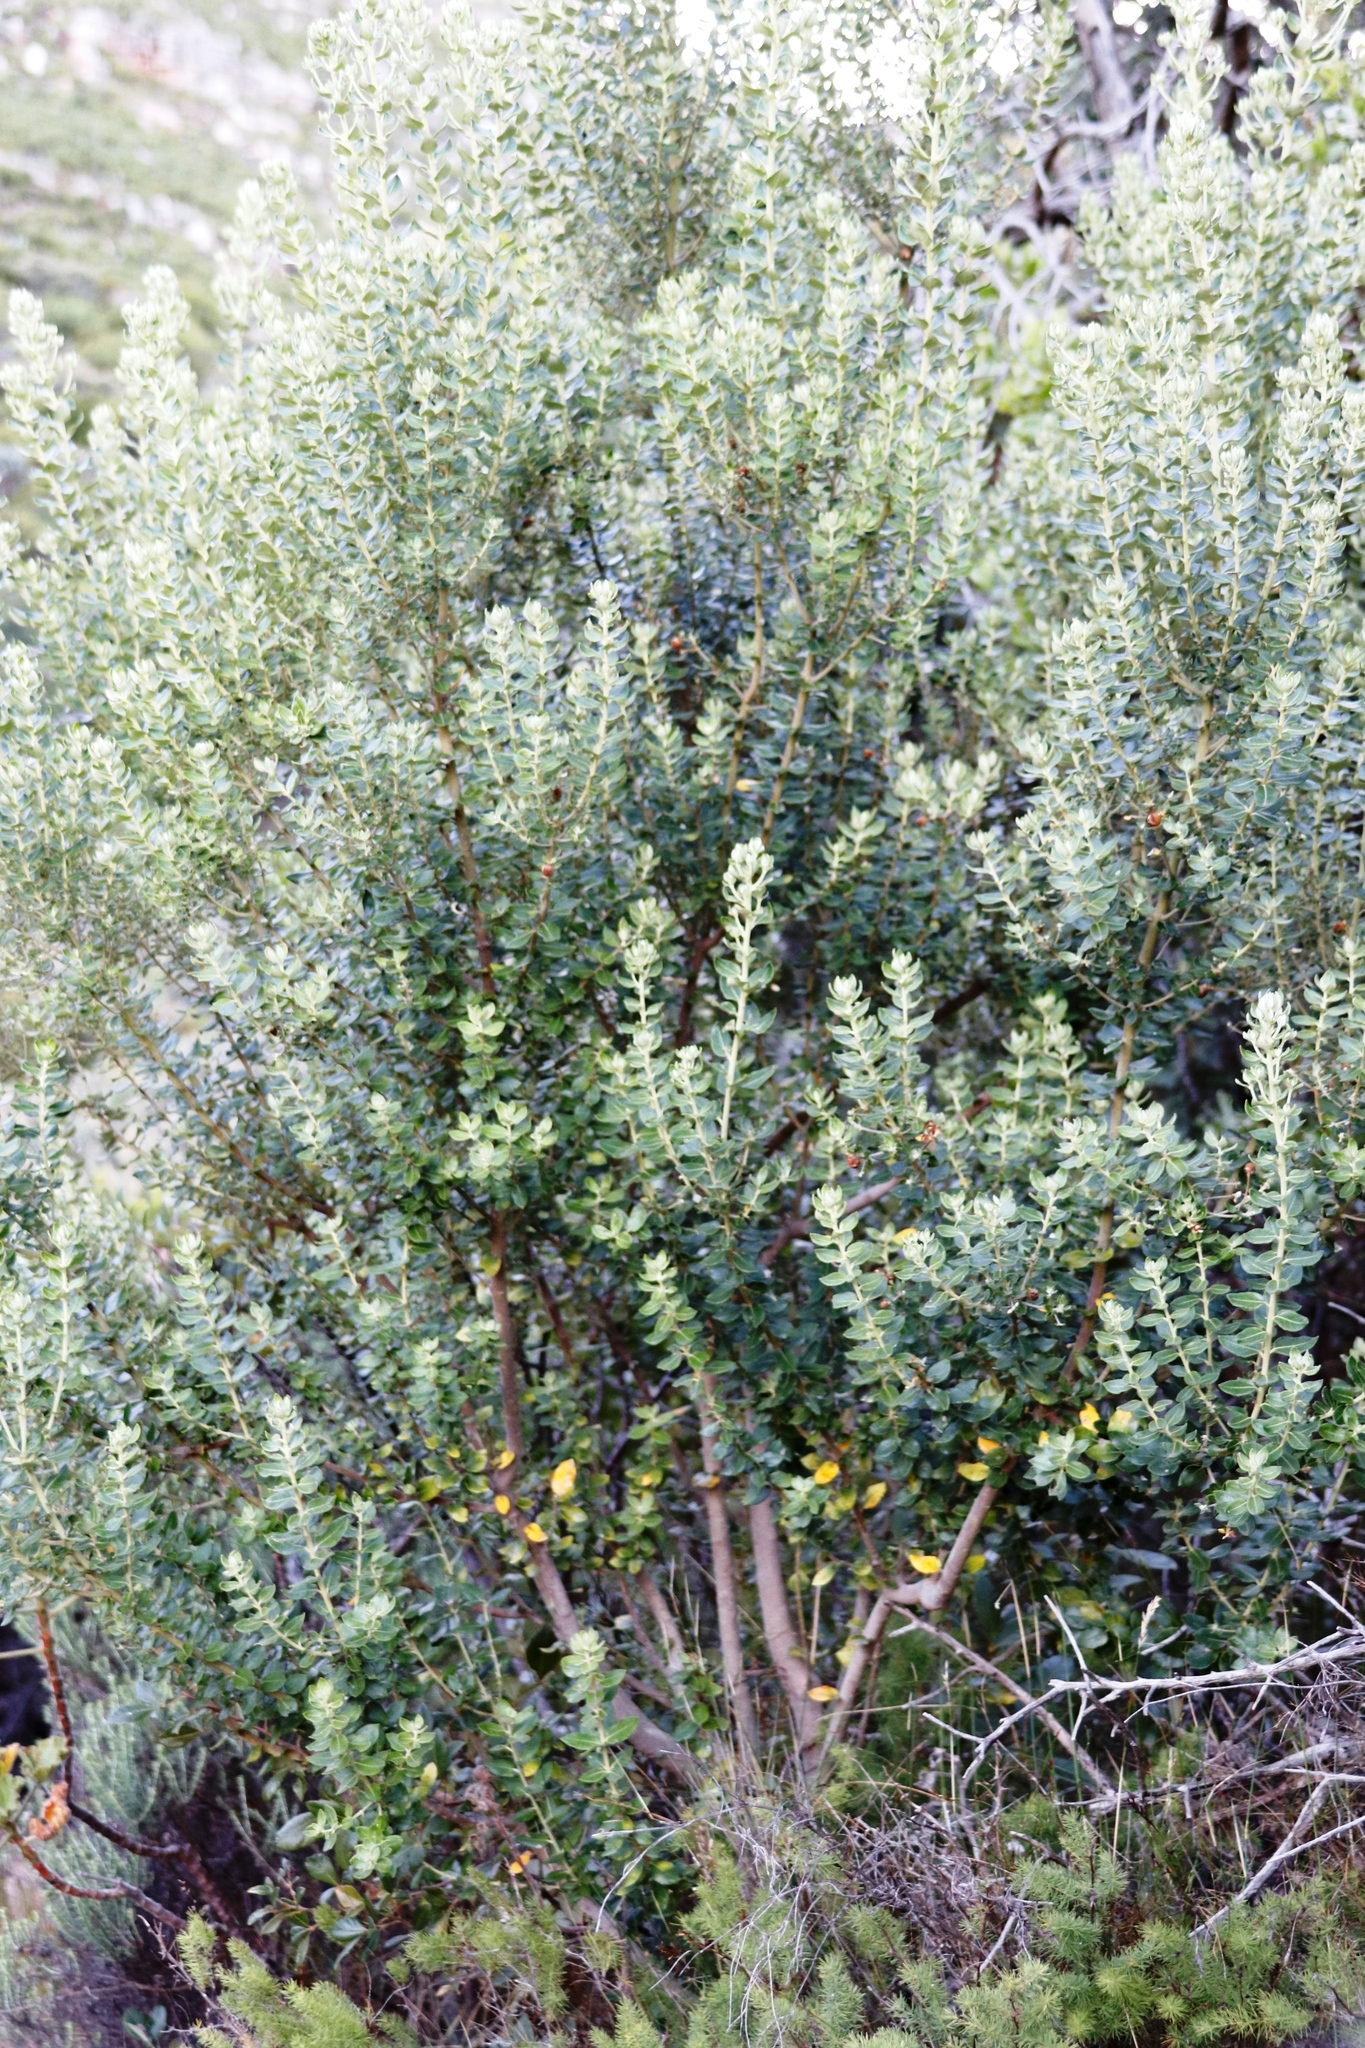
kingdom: Plantae
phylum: Tracheophyta
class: Magnoliopsida
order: Rosales
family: Rhamnaceae
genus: Phylica
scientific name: Phylica buxifolia
